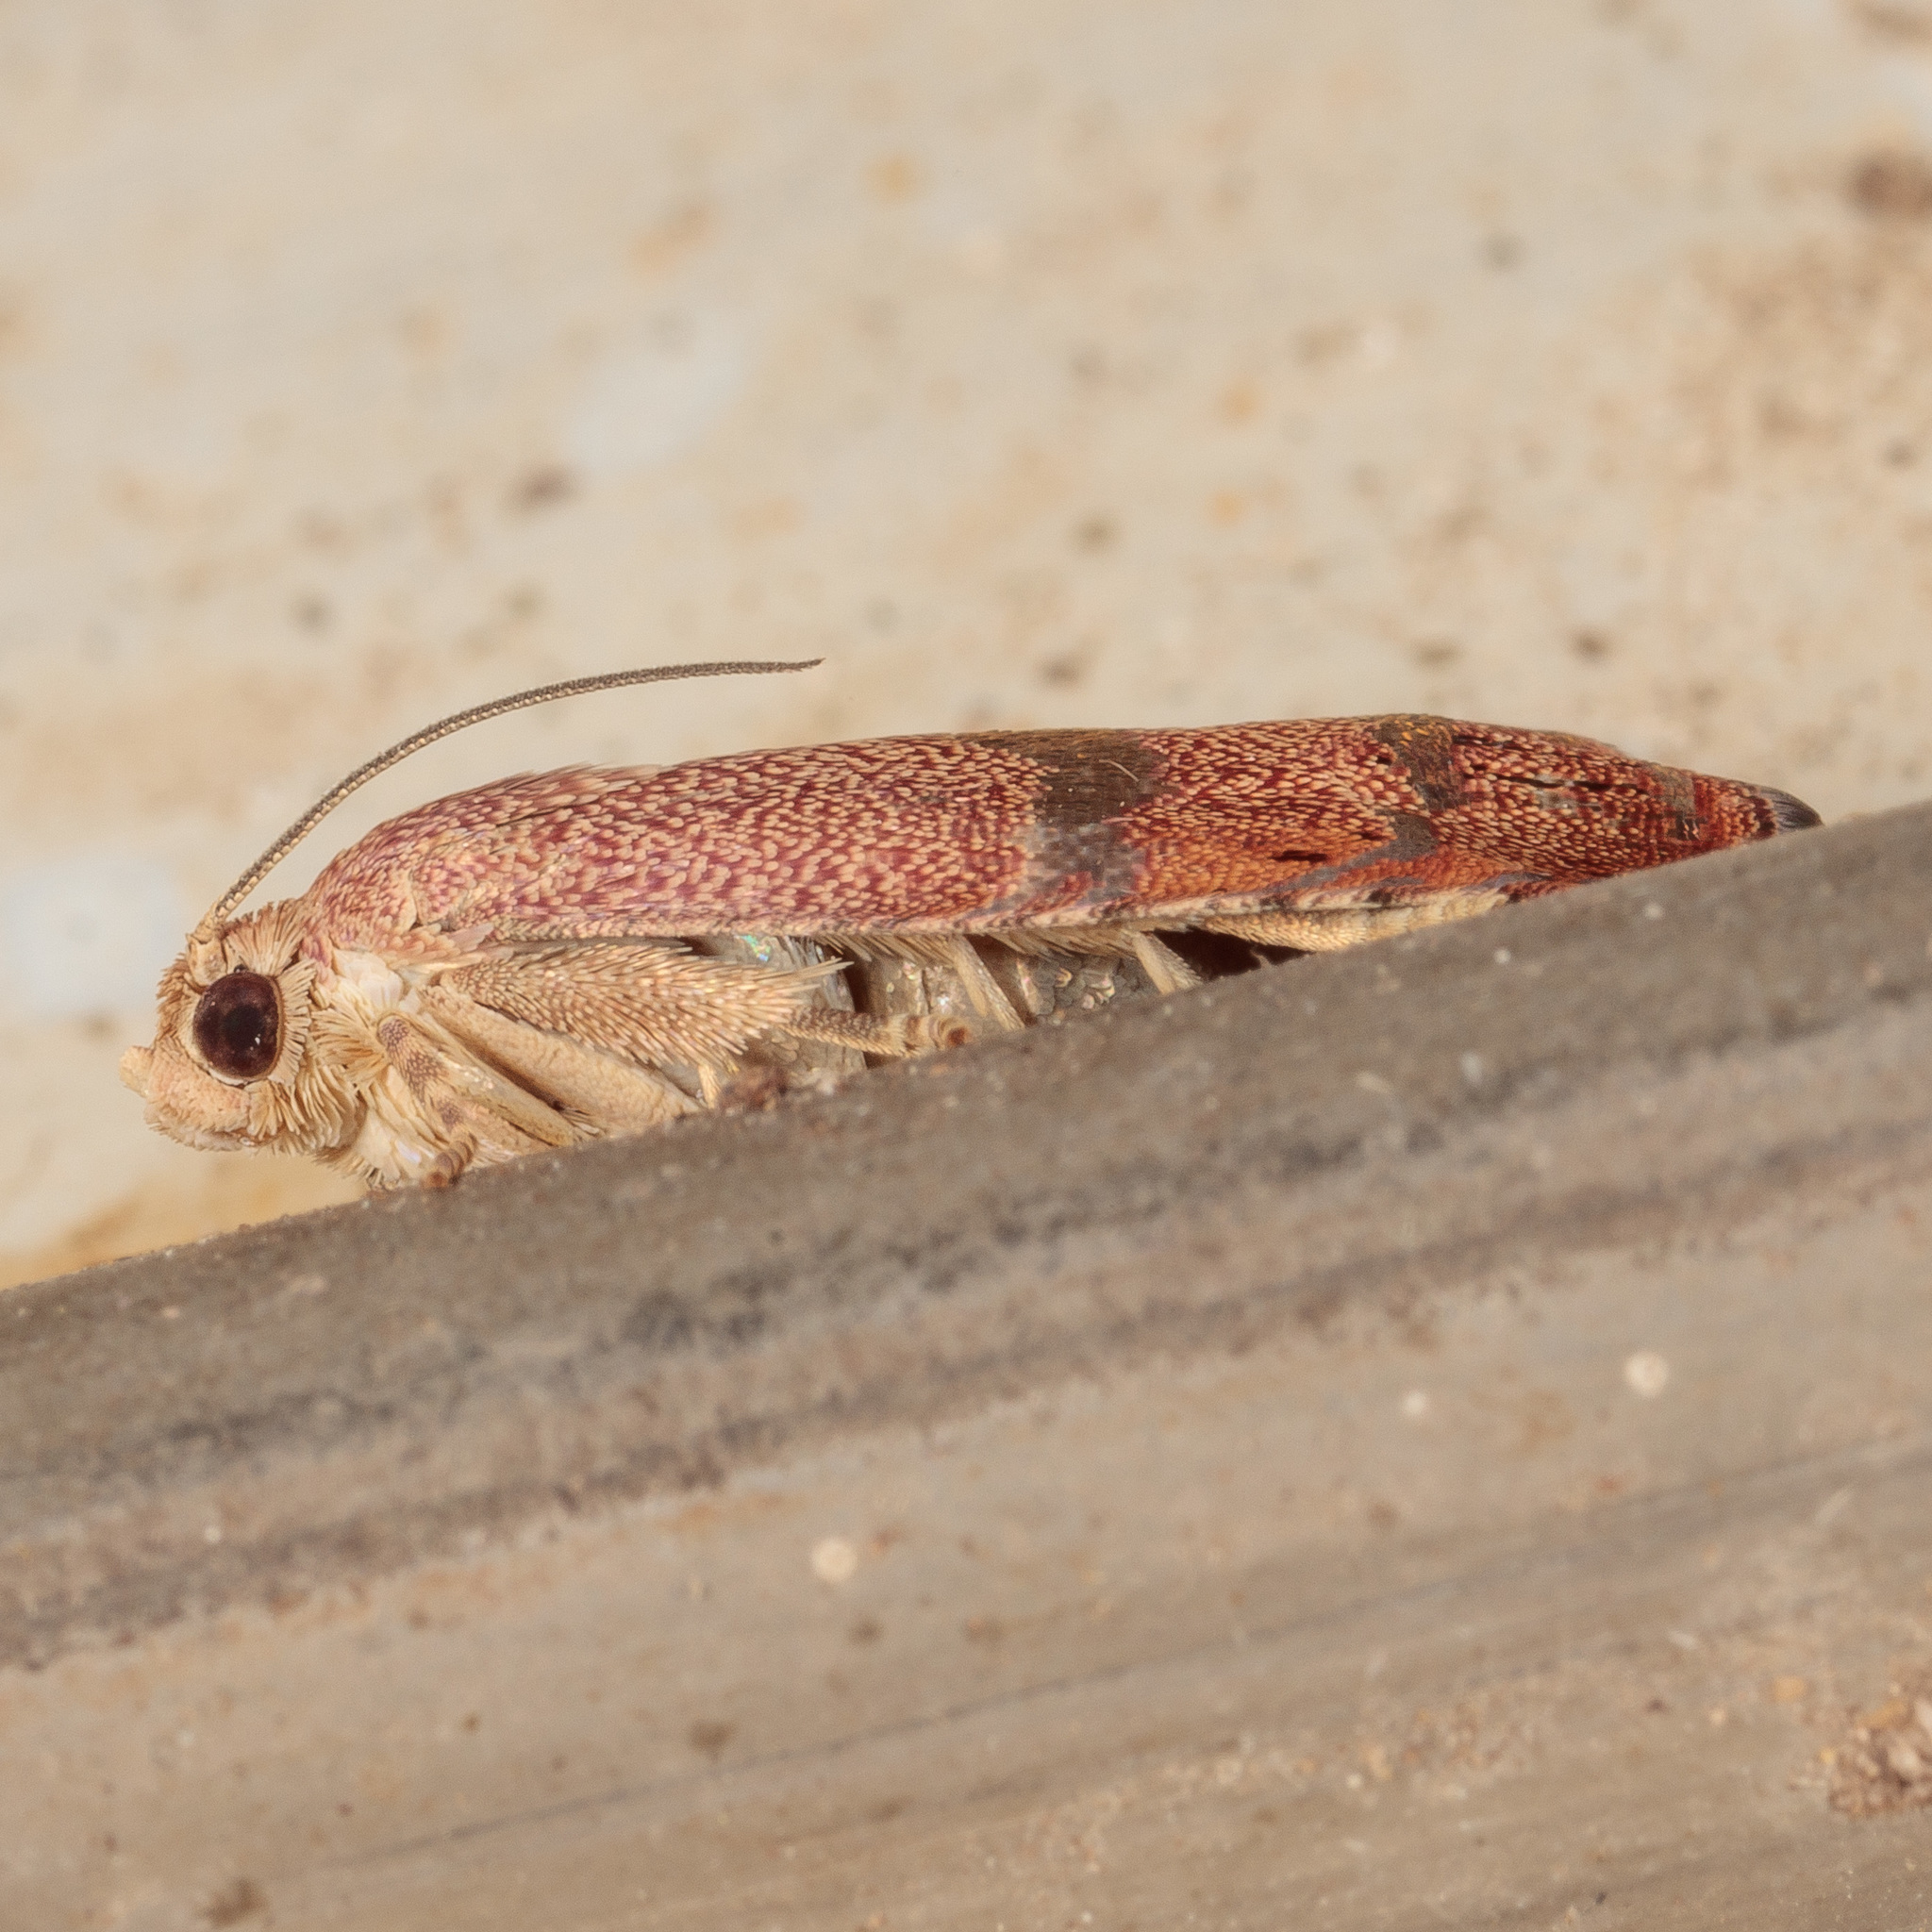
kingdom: Animalia
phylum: Arthropoda
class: Insecta
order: Lepidoptera
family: Tortricidae
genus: Cydia
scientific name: Cydia latiferreana
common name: Filbertworm moth
